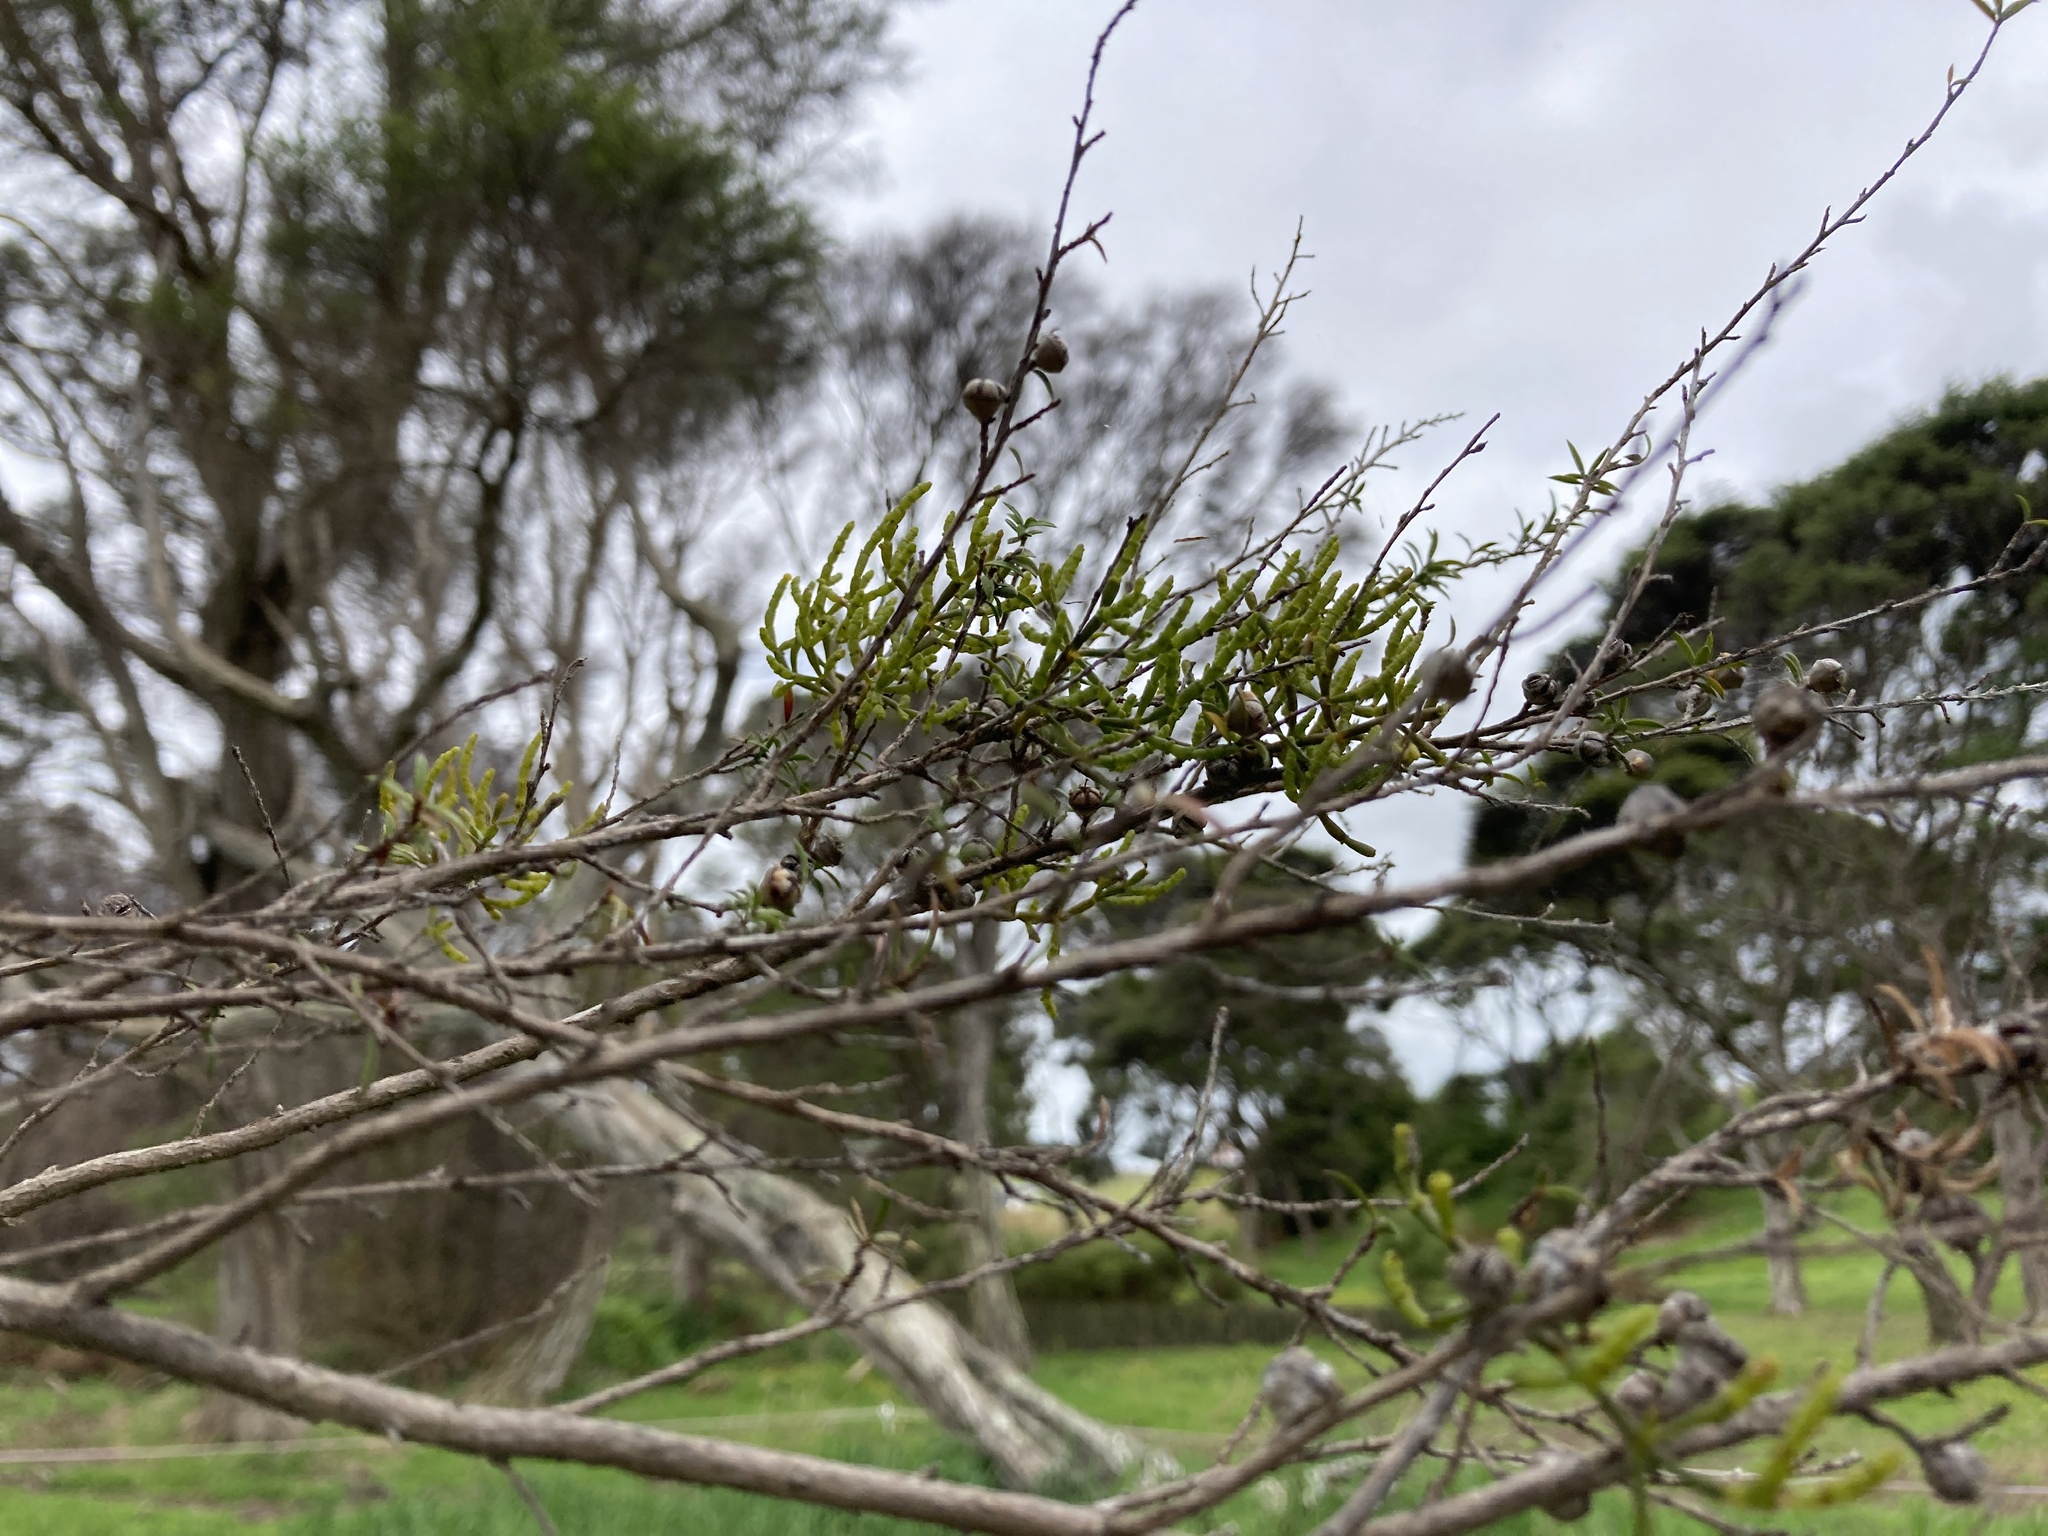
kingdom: Plantae
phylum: Tracheophyta
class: Magnoliopsida
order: Santalales
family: Viscaceae
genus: Korthalsella
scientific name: Korthalsella salicornioides
